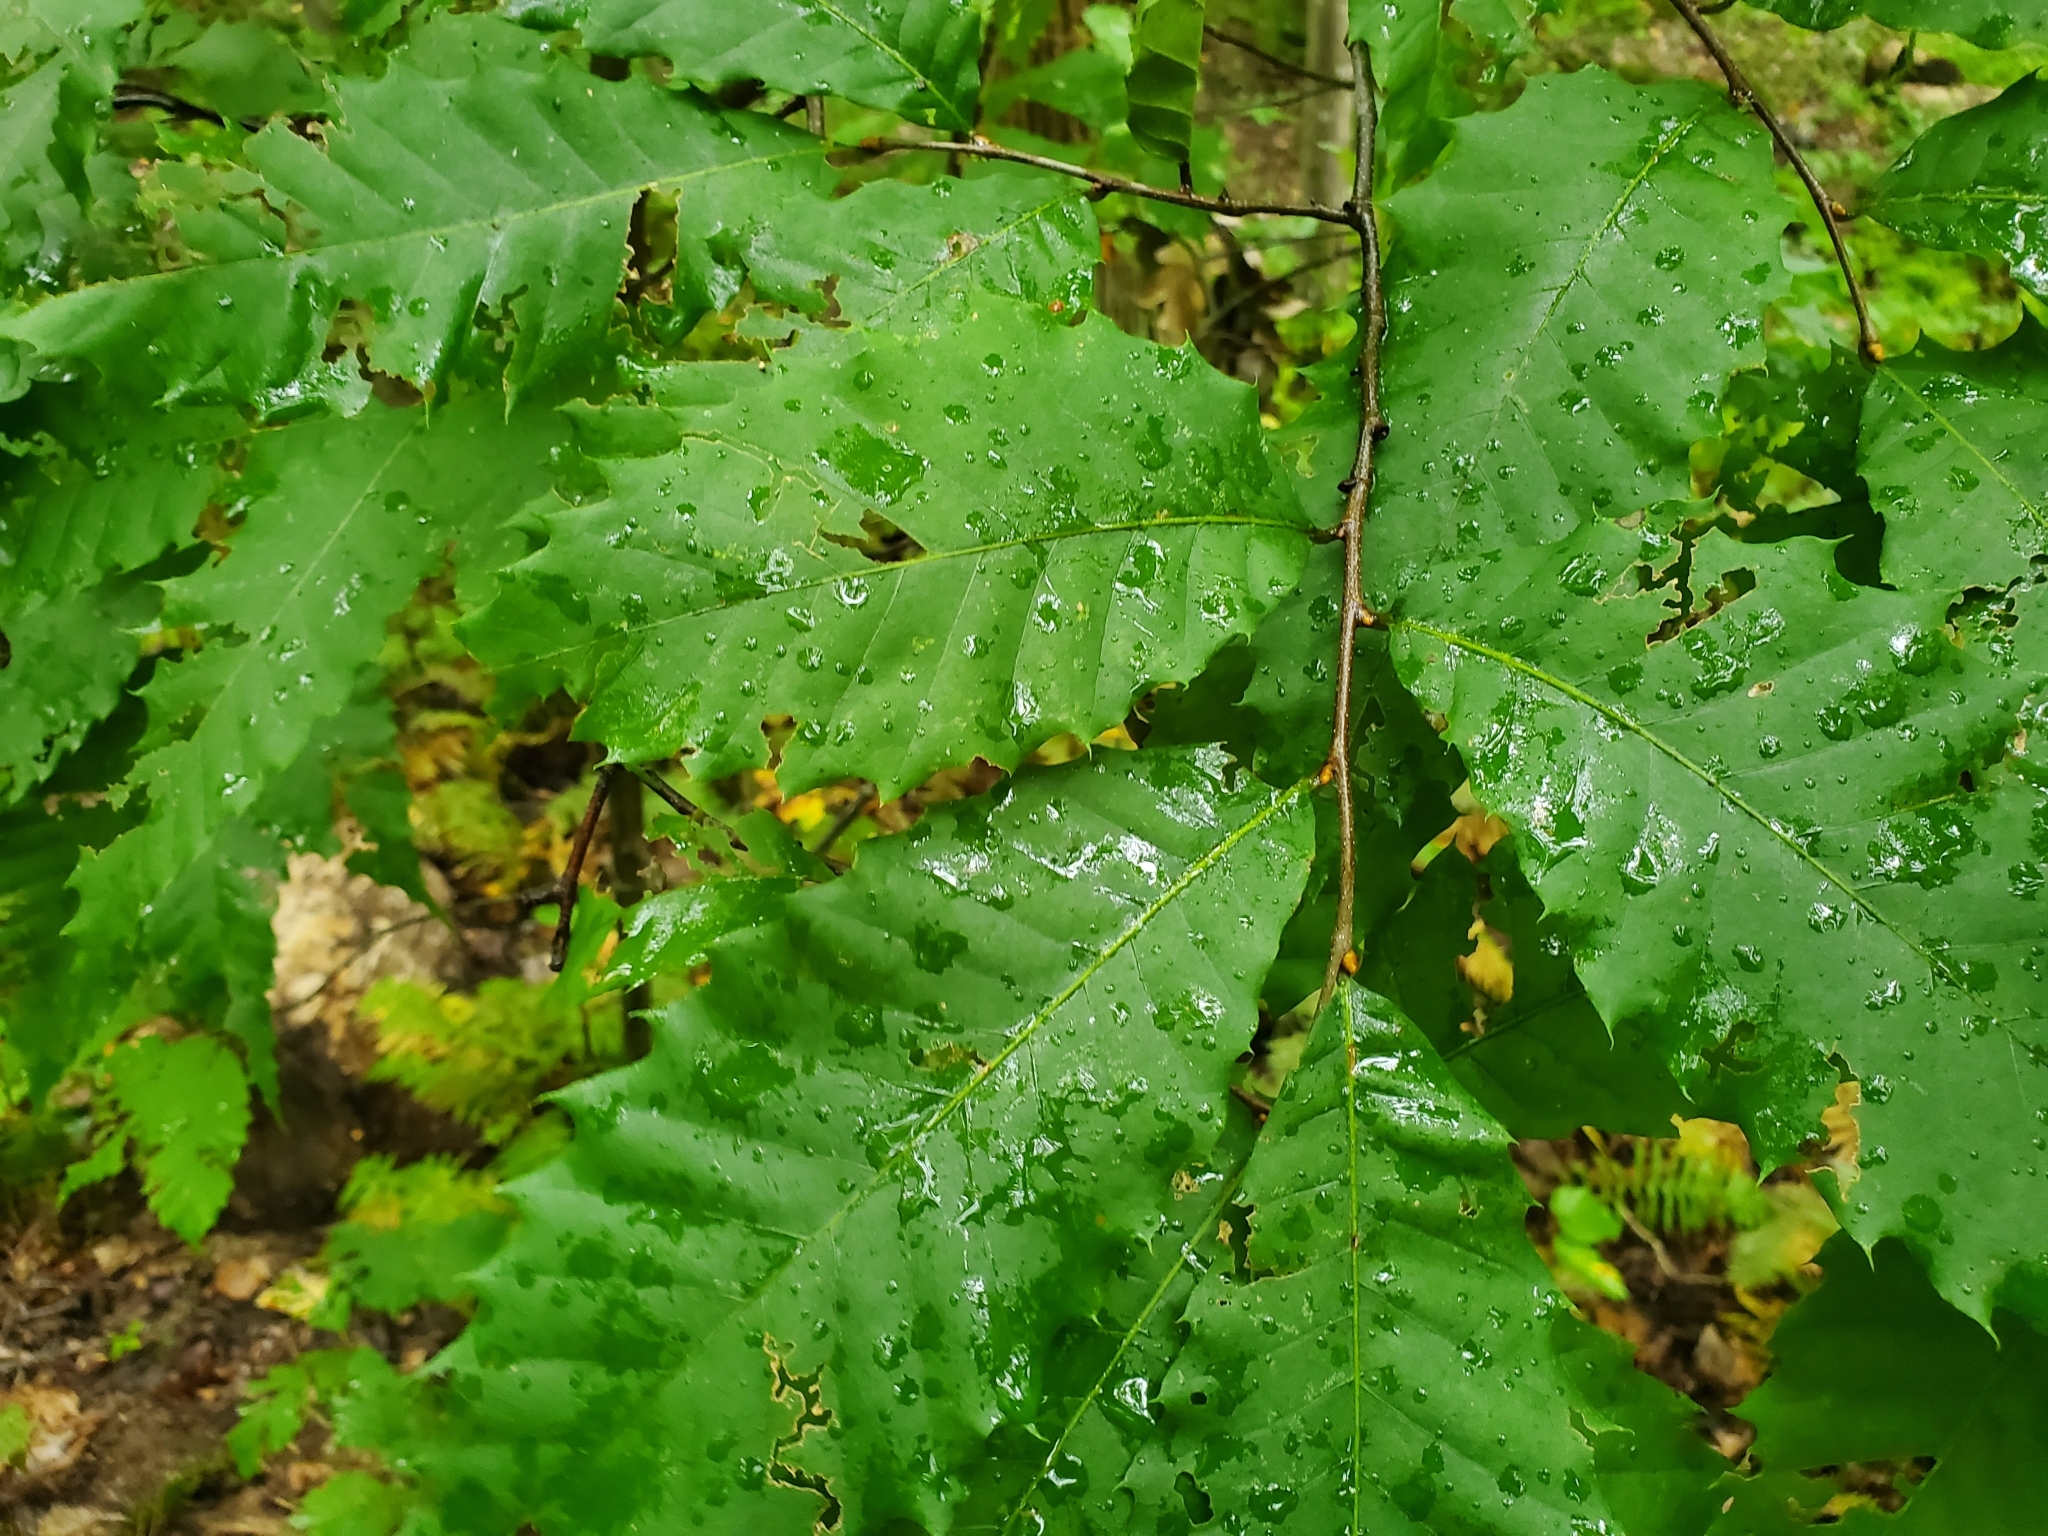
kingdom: Plantae
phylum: Tracheophyta
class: Magnoliopsida
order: Fagales
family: Fagaceae
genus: Castanea
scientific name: Castanea dentata
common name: American chestnut
